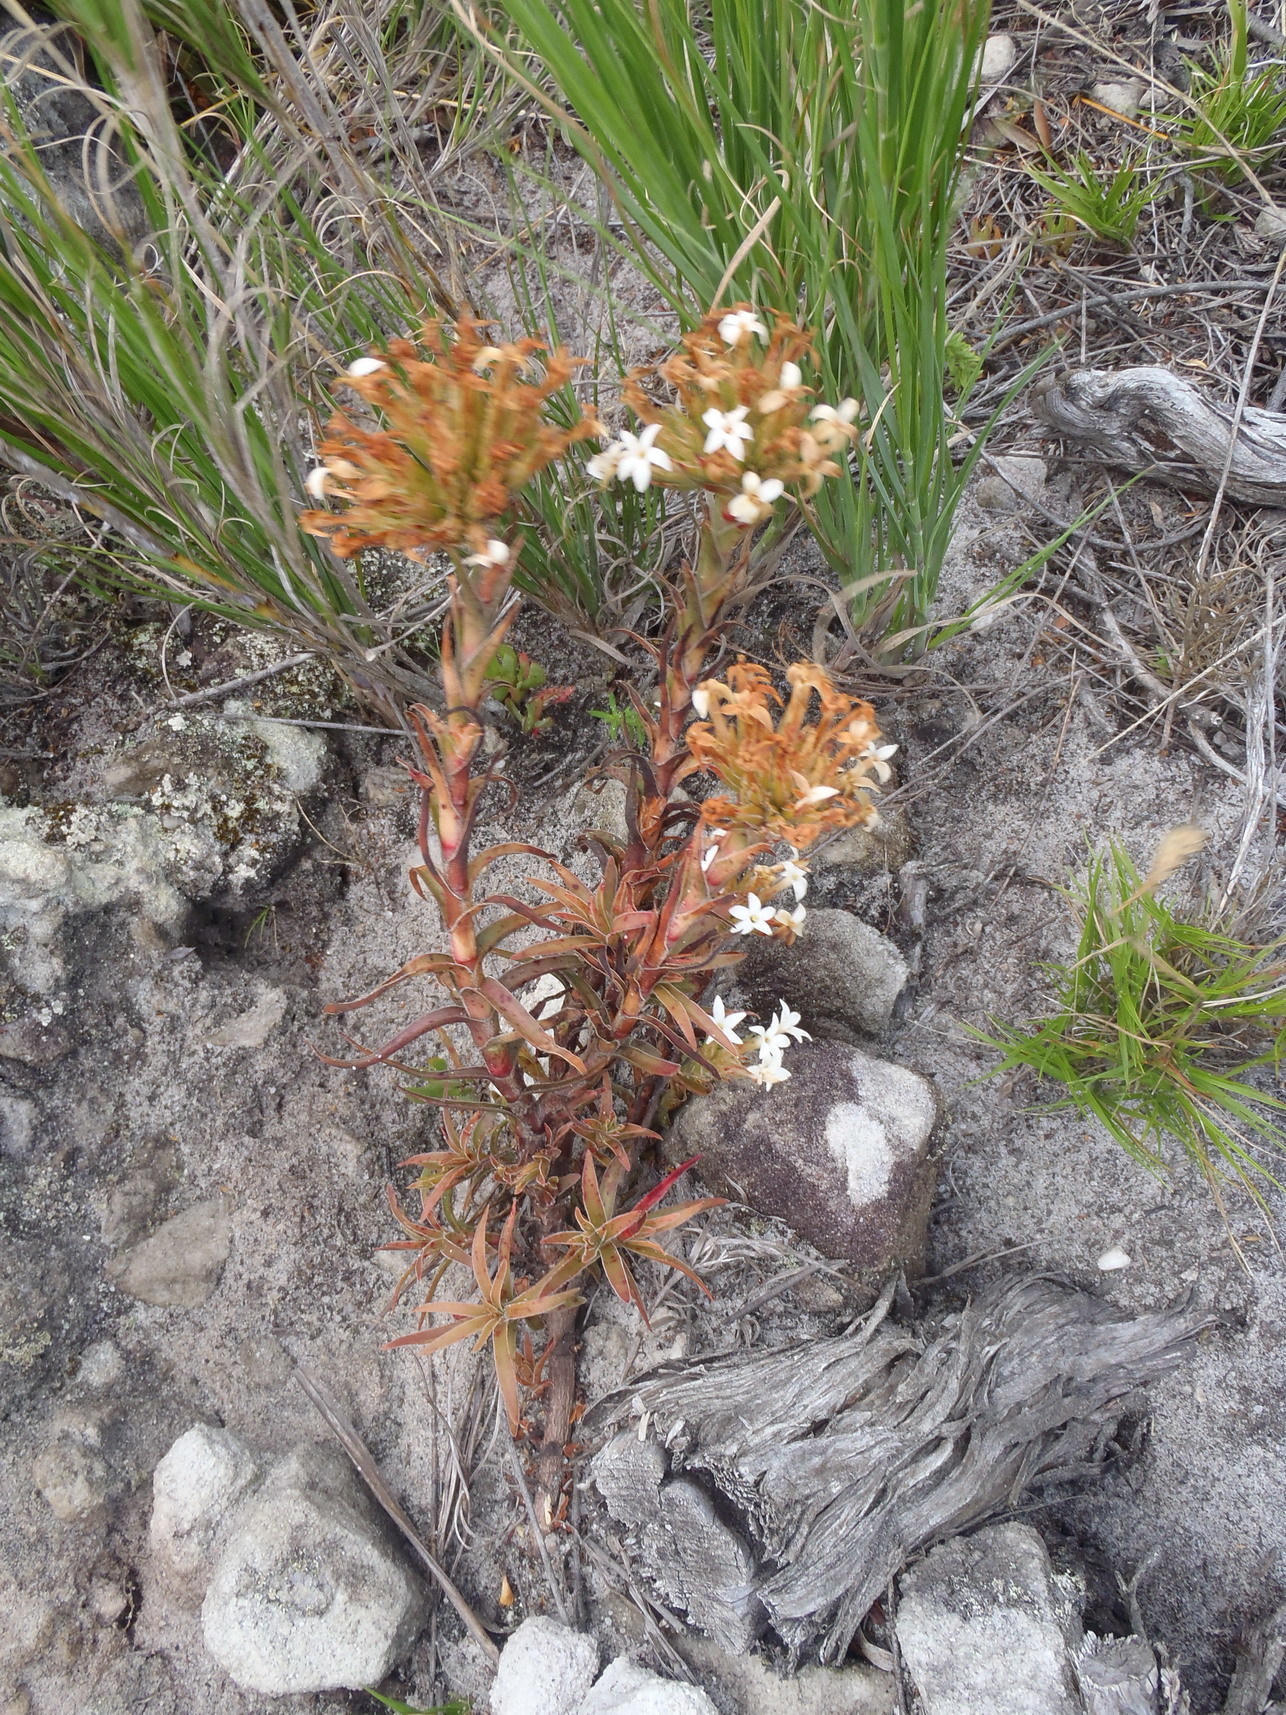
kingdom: Plantae
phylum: Tracheophyta
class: Magnoliopsida
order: Saxifragales
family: Crassulaceae
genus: Crassula
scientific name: Crassula fascicularis
